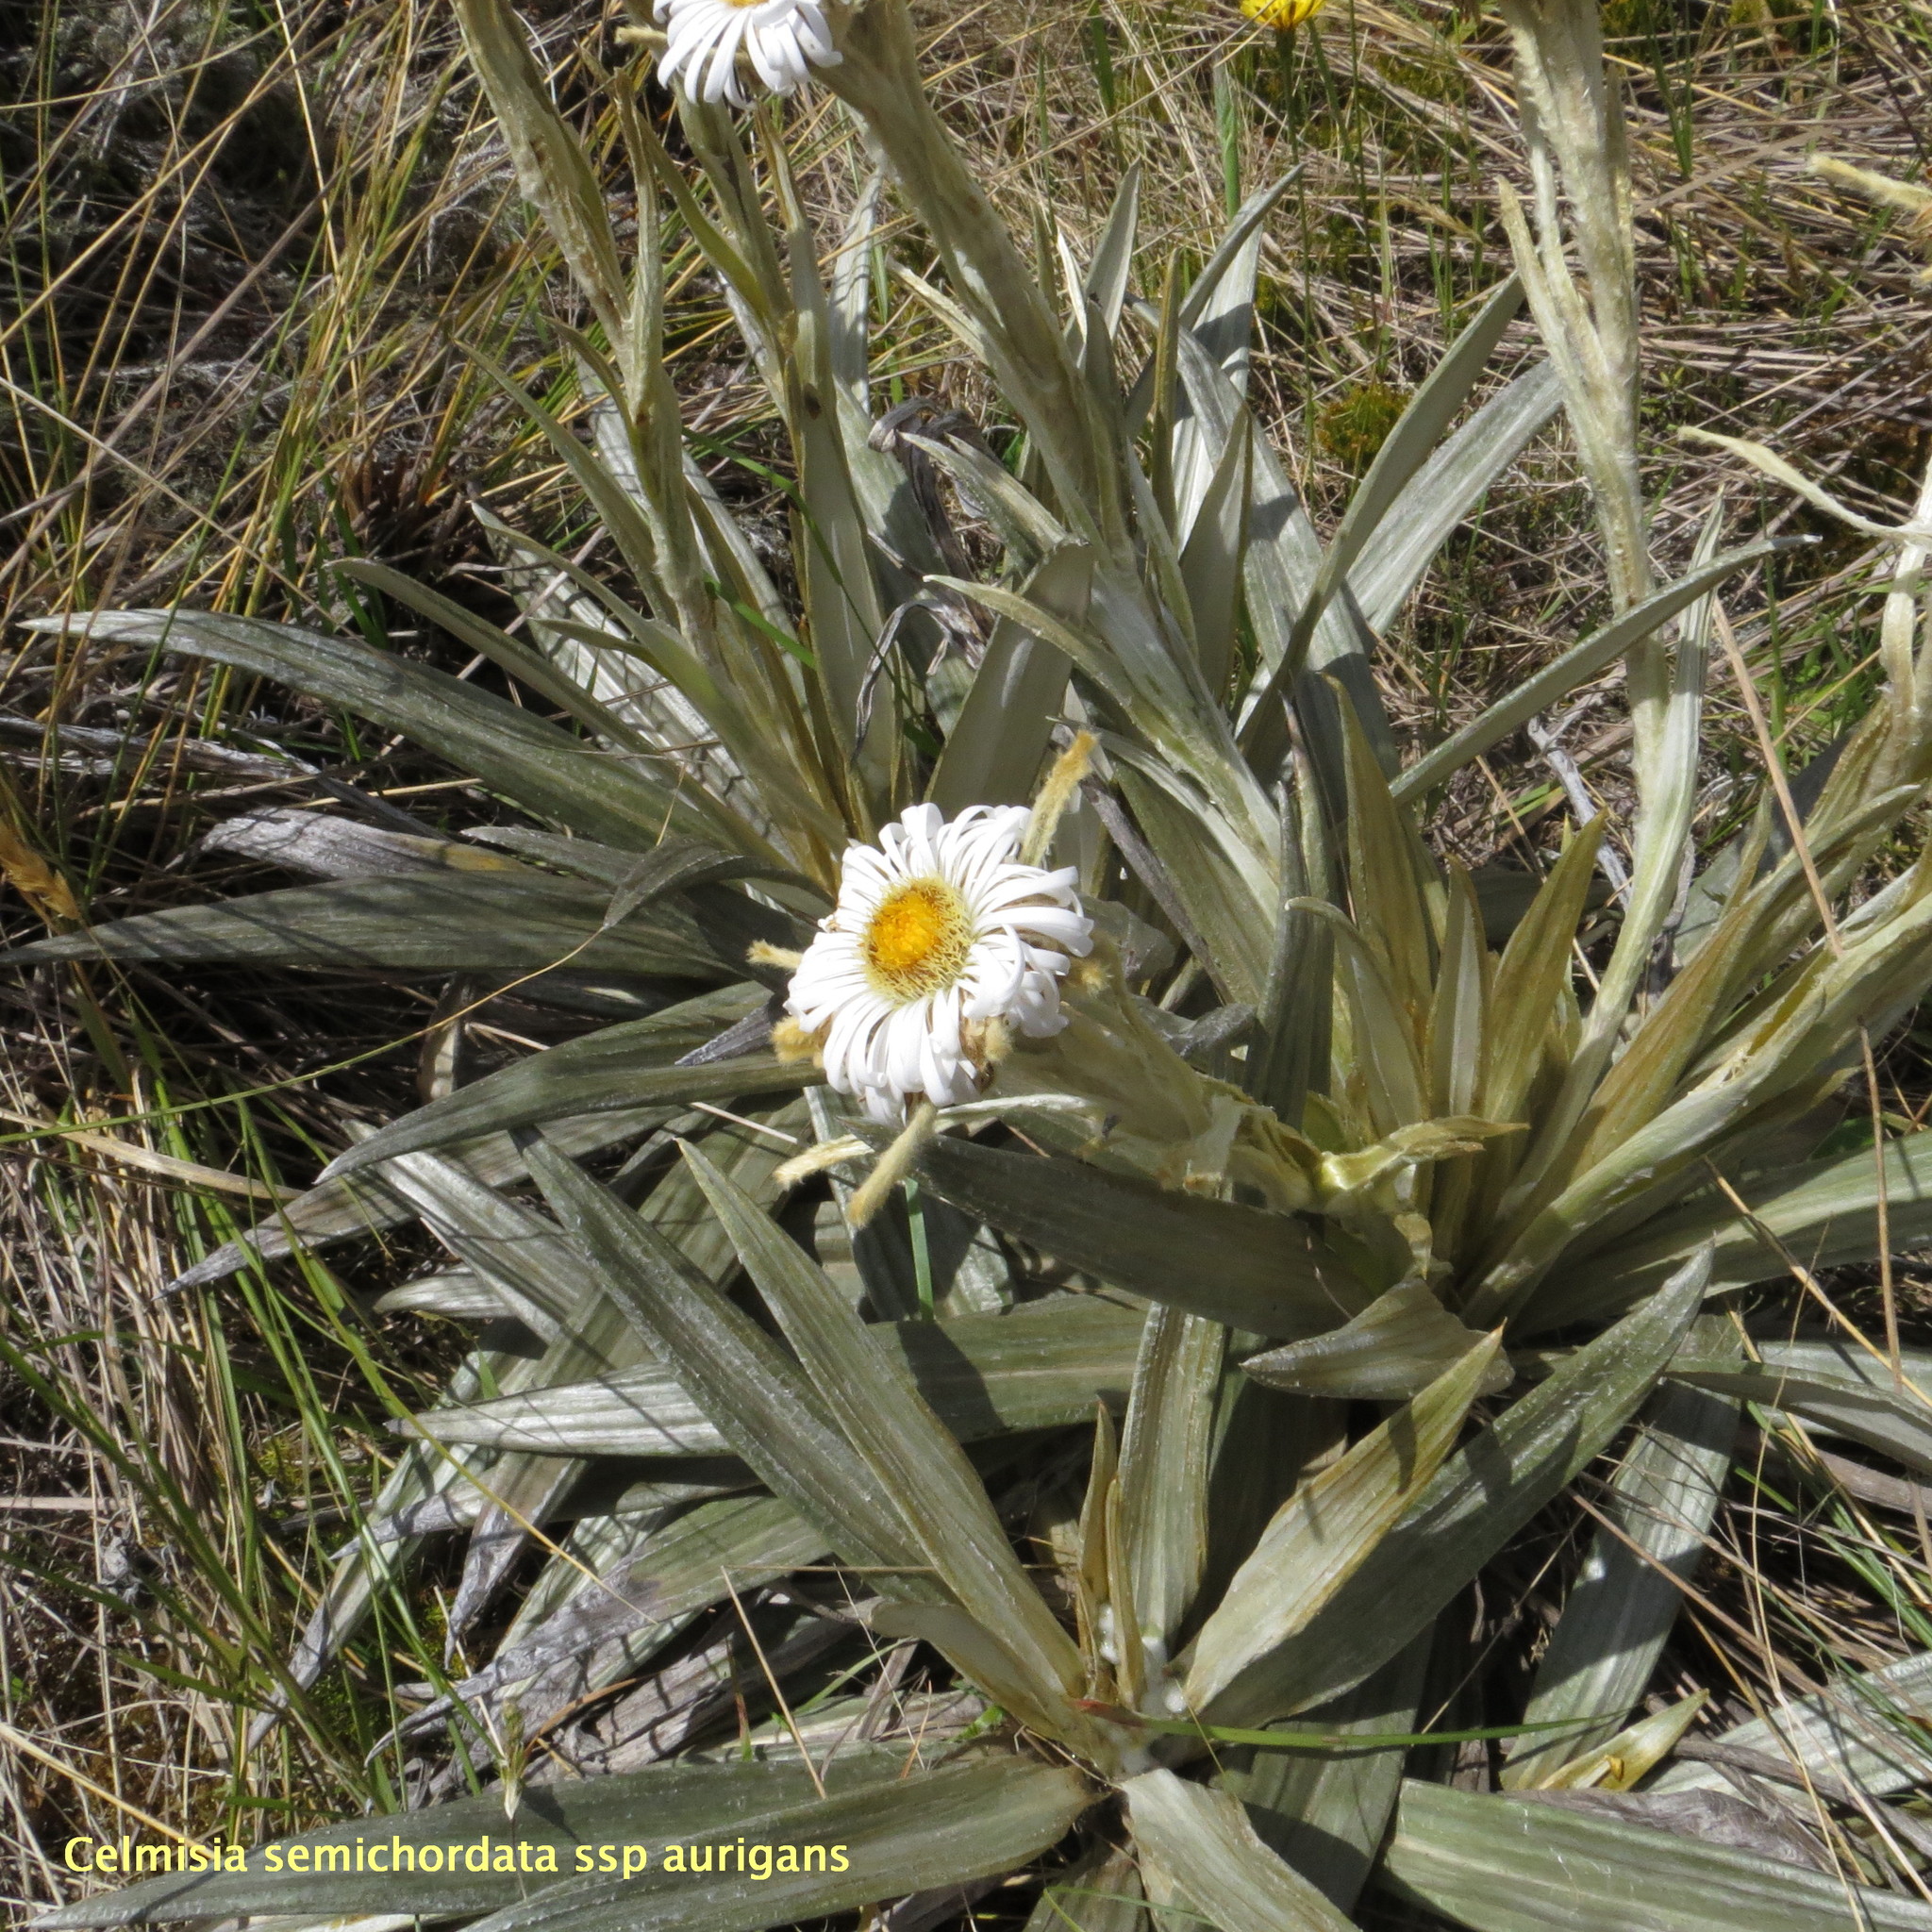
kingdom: Plantae
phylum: Tracheophyta
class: Magnoliopsida
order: Asterales
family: Asteraceae
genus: Celmisia
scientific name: Celmisia semicordata
